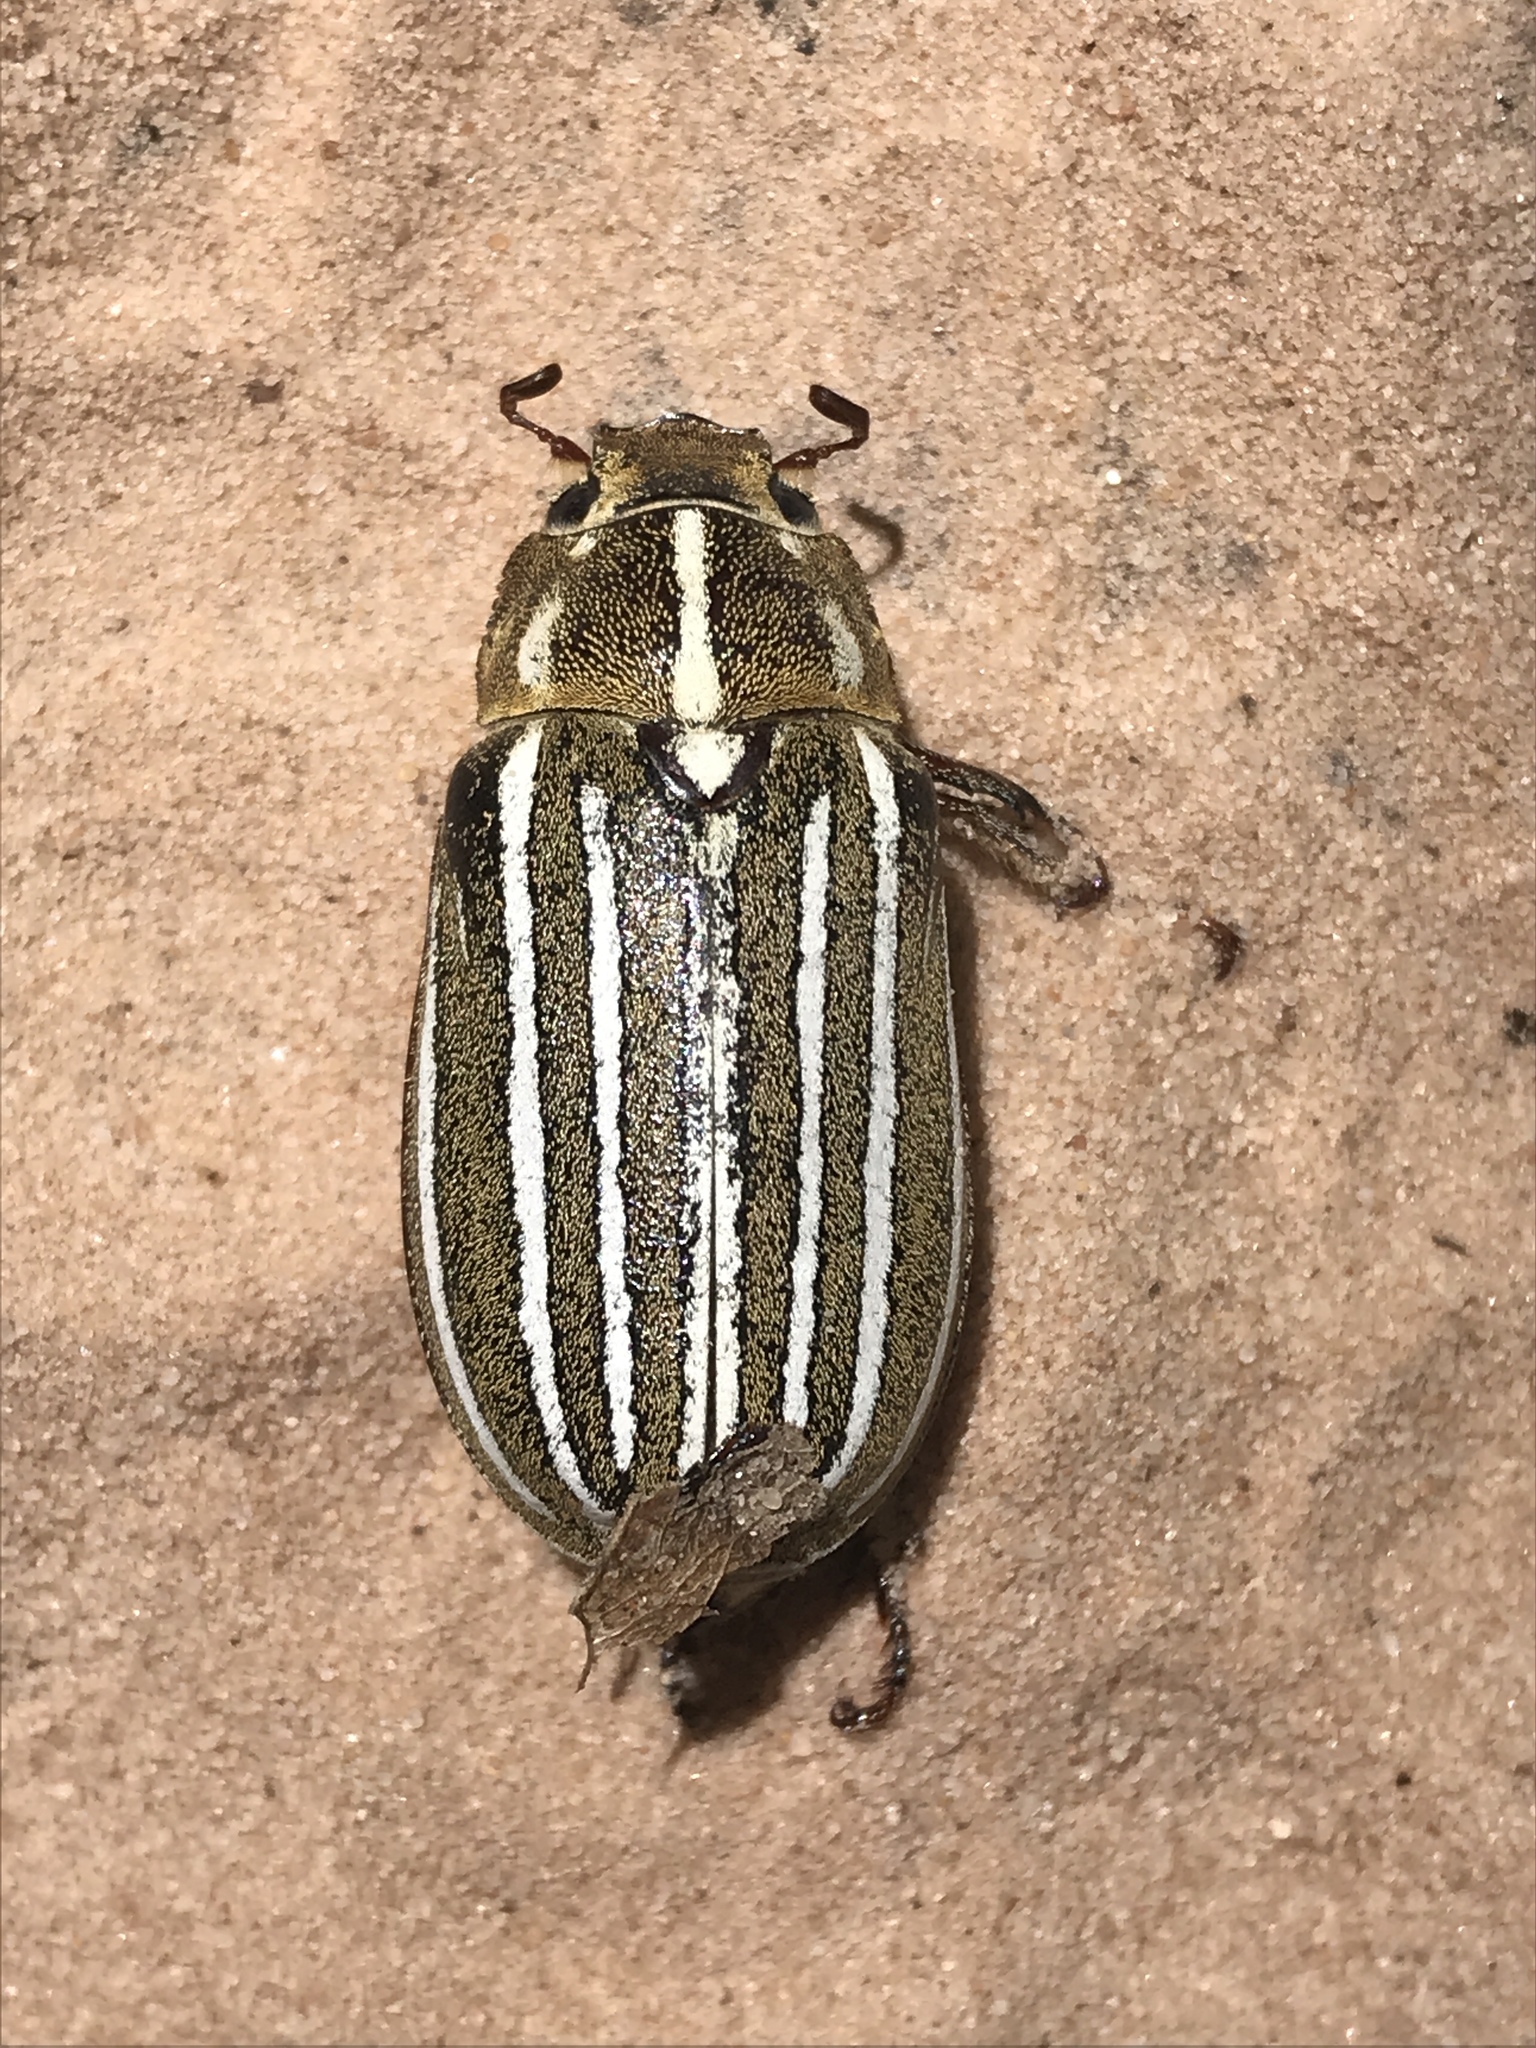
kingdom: Animalia
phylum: Arthropoda
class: Insecta
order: Coleoptera
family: Scarabaeidae
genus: Polyphylla
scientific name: Polyphylla decemlineata
